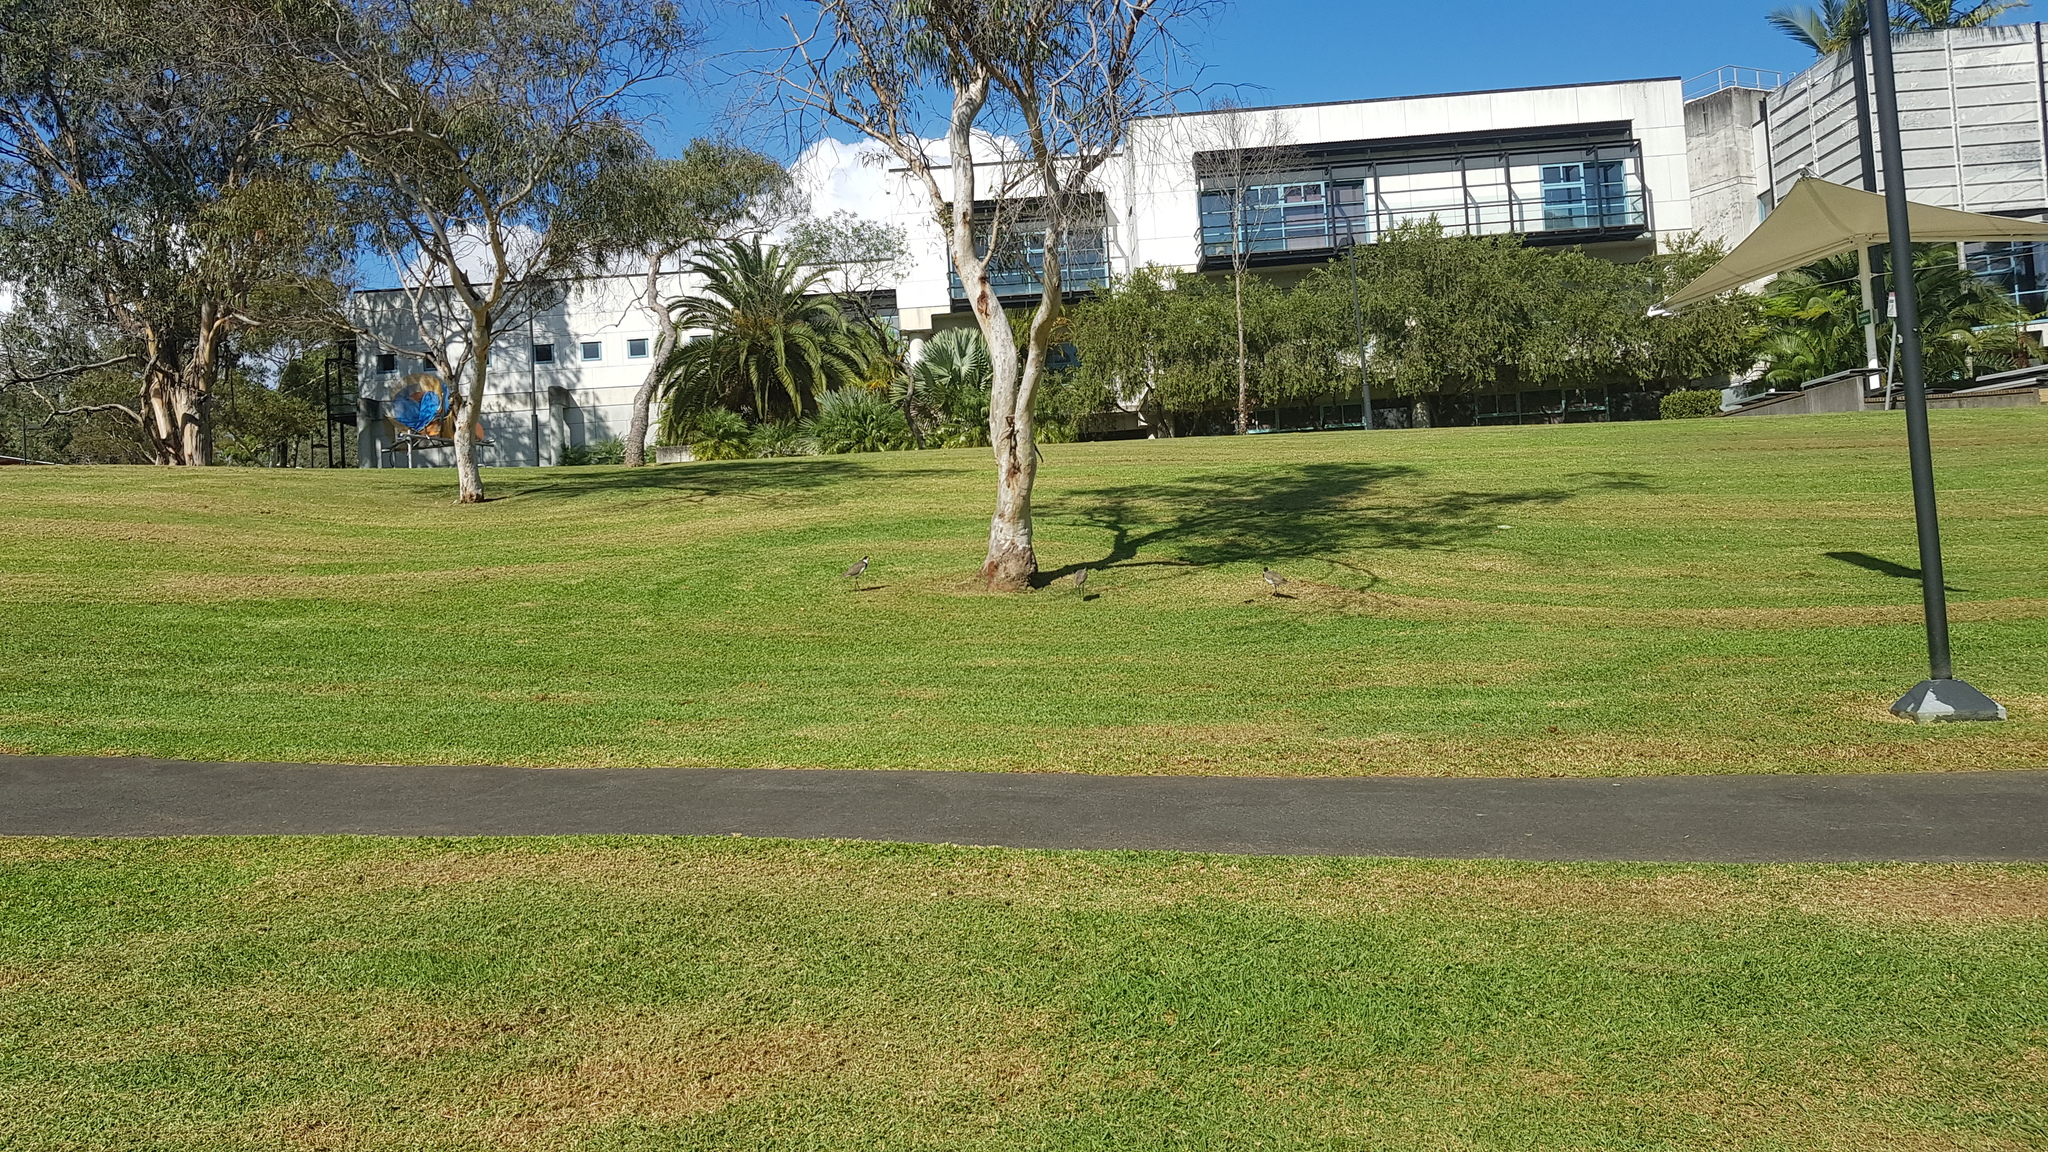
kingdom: Animalia
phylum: Chordata
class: Aves
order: Charadriiformes
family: Charadriidae
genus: Vanellus
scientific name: Vanellus miles
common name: Masked lapwing
